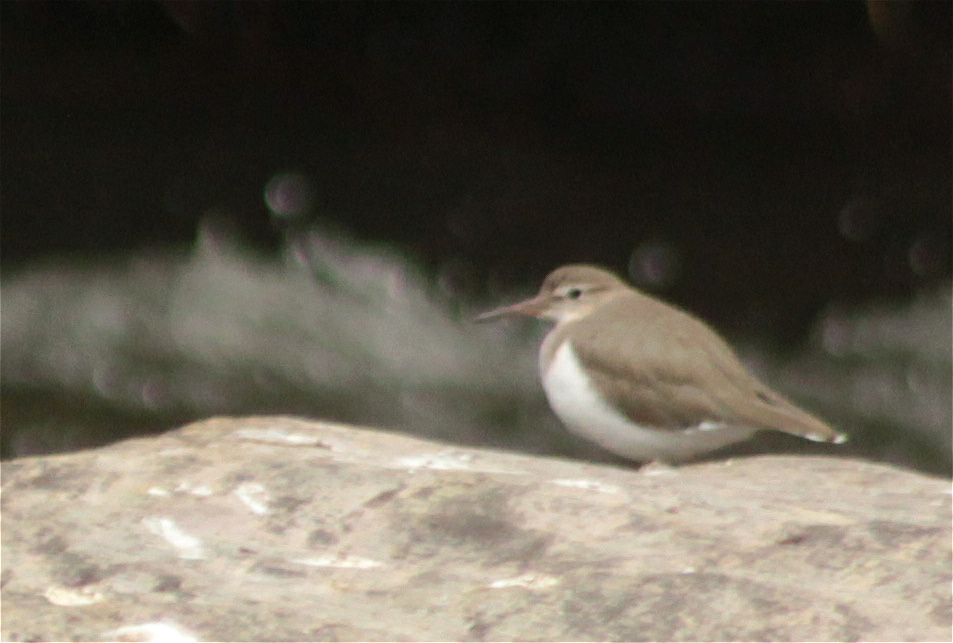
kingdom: Animalia
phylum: Chordata
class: Aves
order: Charadriiformes
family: Scolopacidae
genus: Actitis
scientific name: Actitis macularius
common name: Spotted sandpiper
